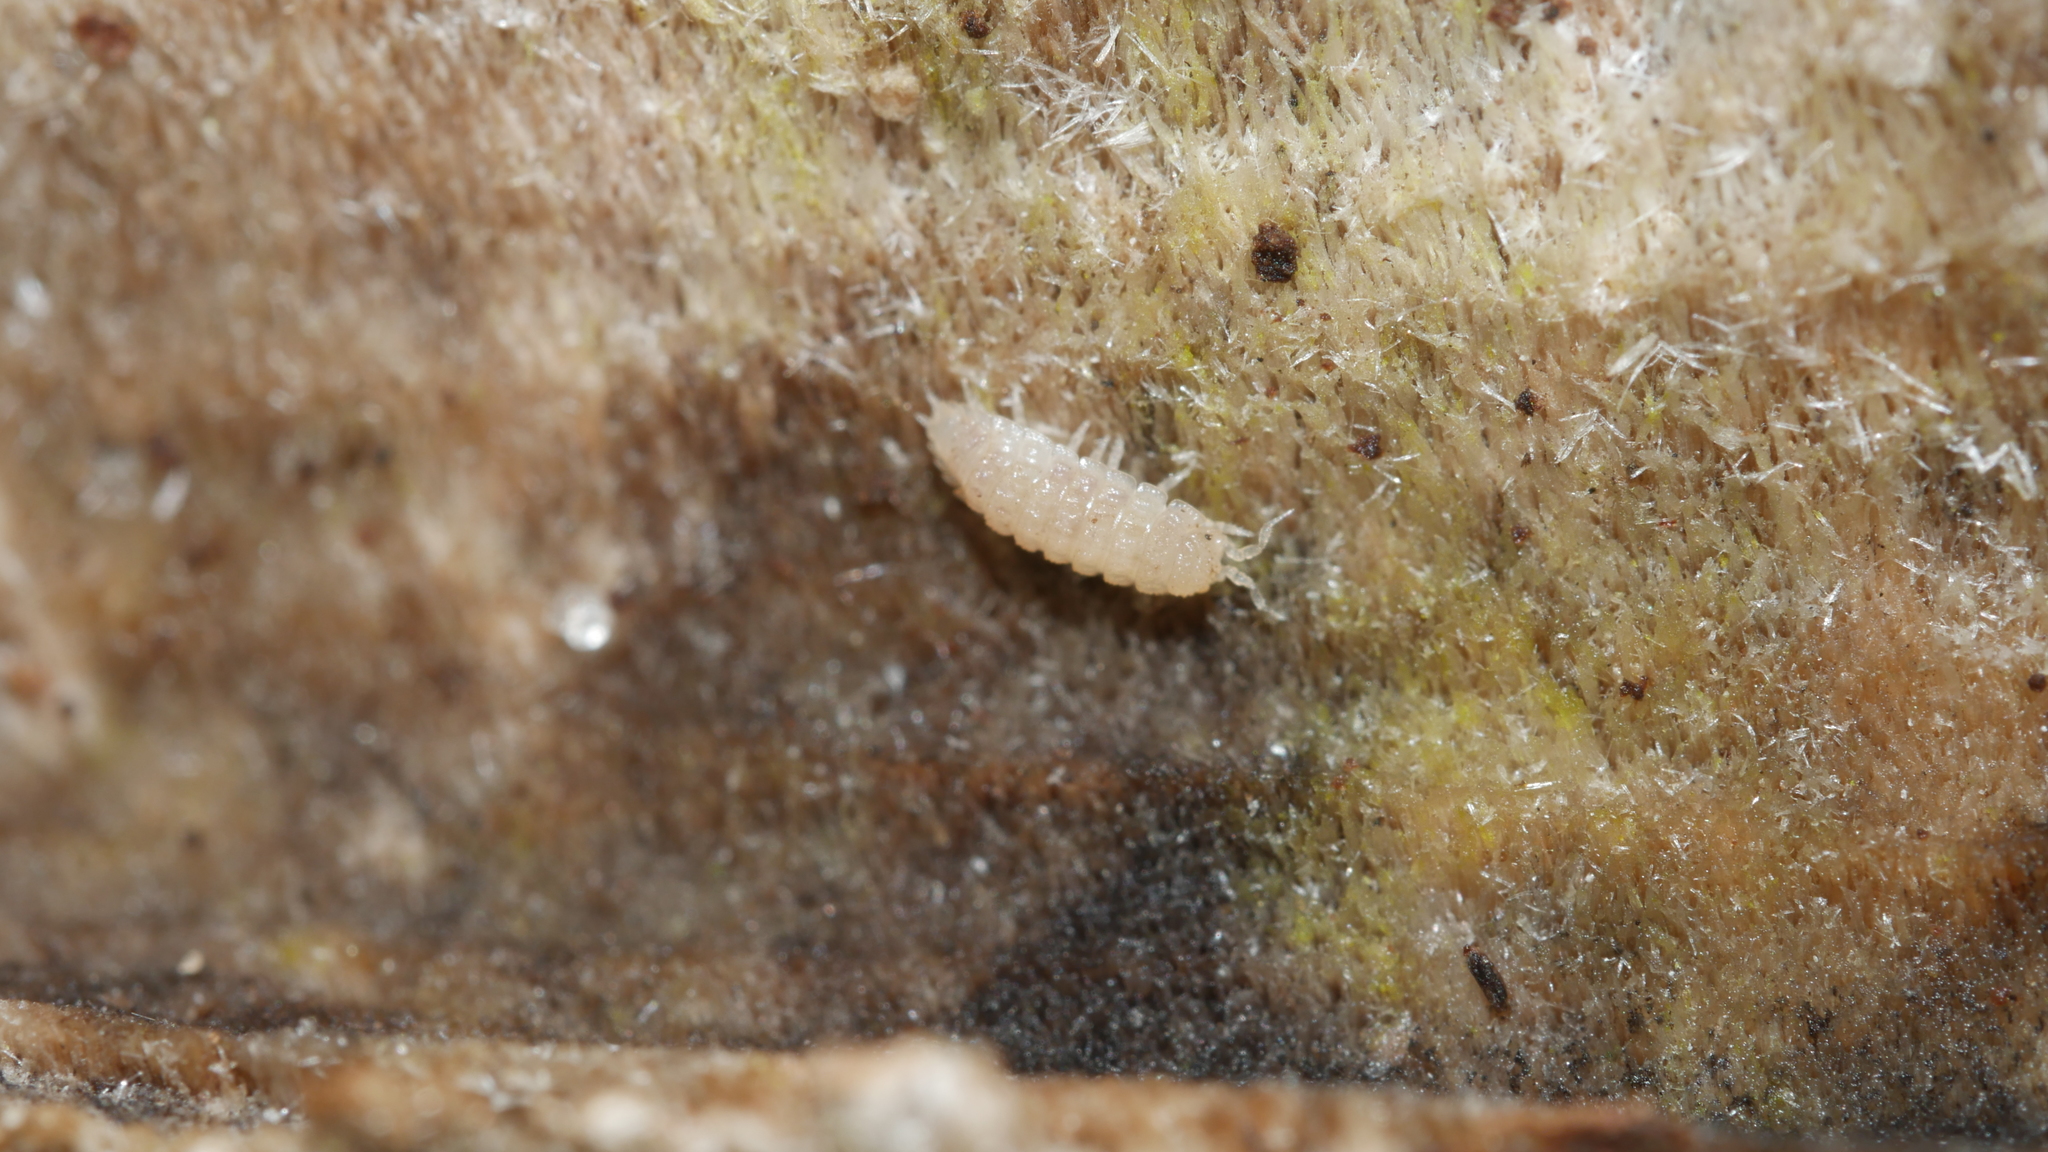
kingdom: Animalia
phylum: Arthropoda
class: Malacostraca
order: Isopoda
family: Trichoniscidae
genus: Haplophthalmus
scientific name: Haplophthalmus danicus
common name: Pillbug
